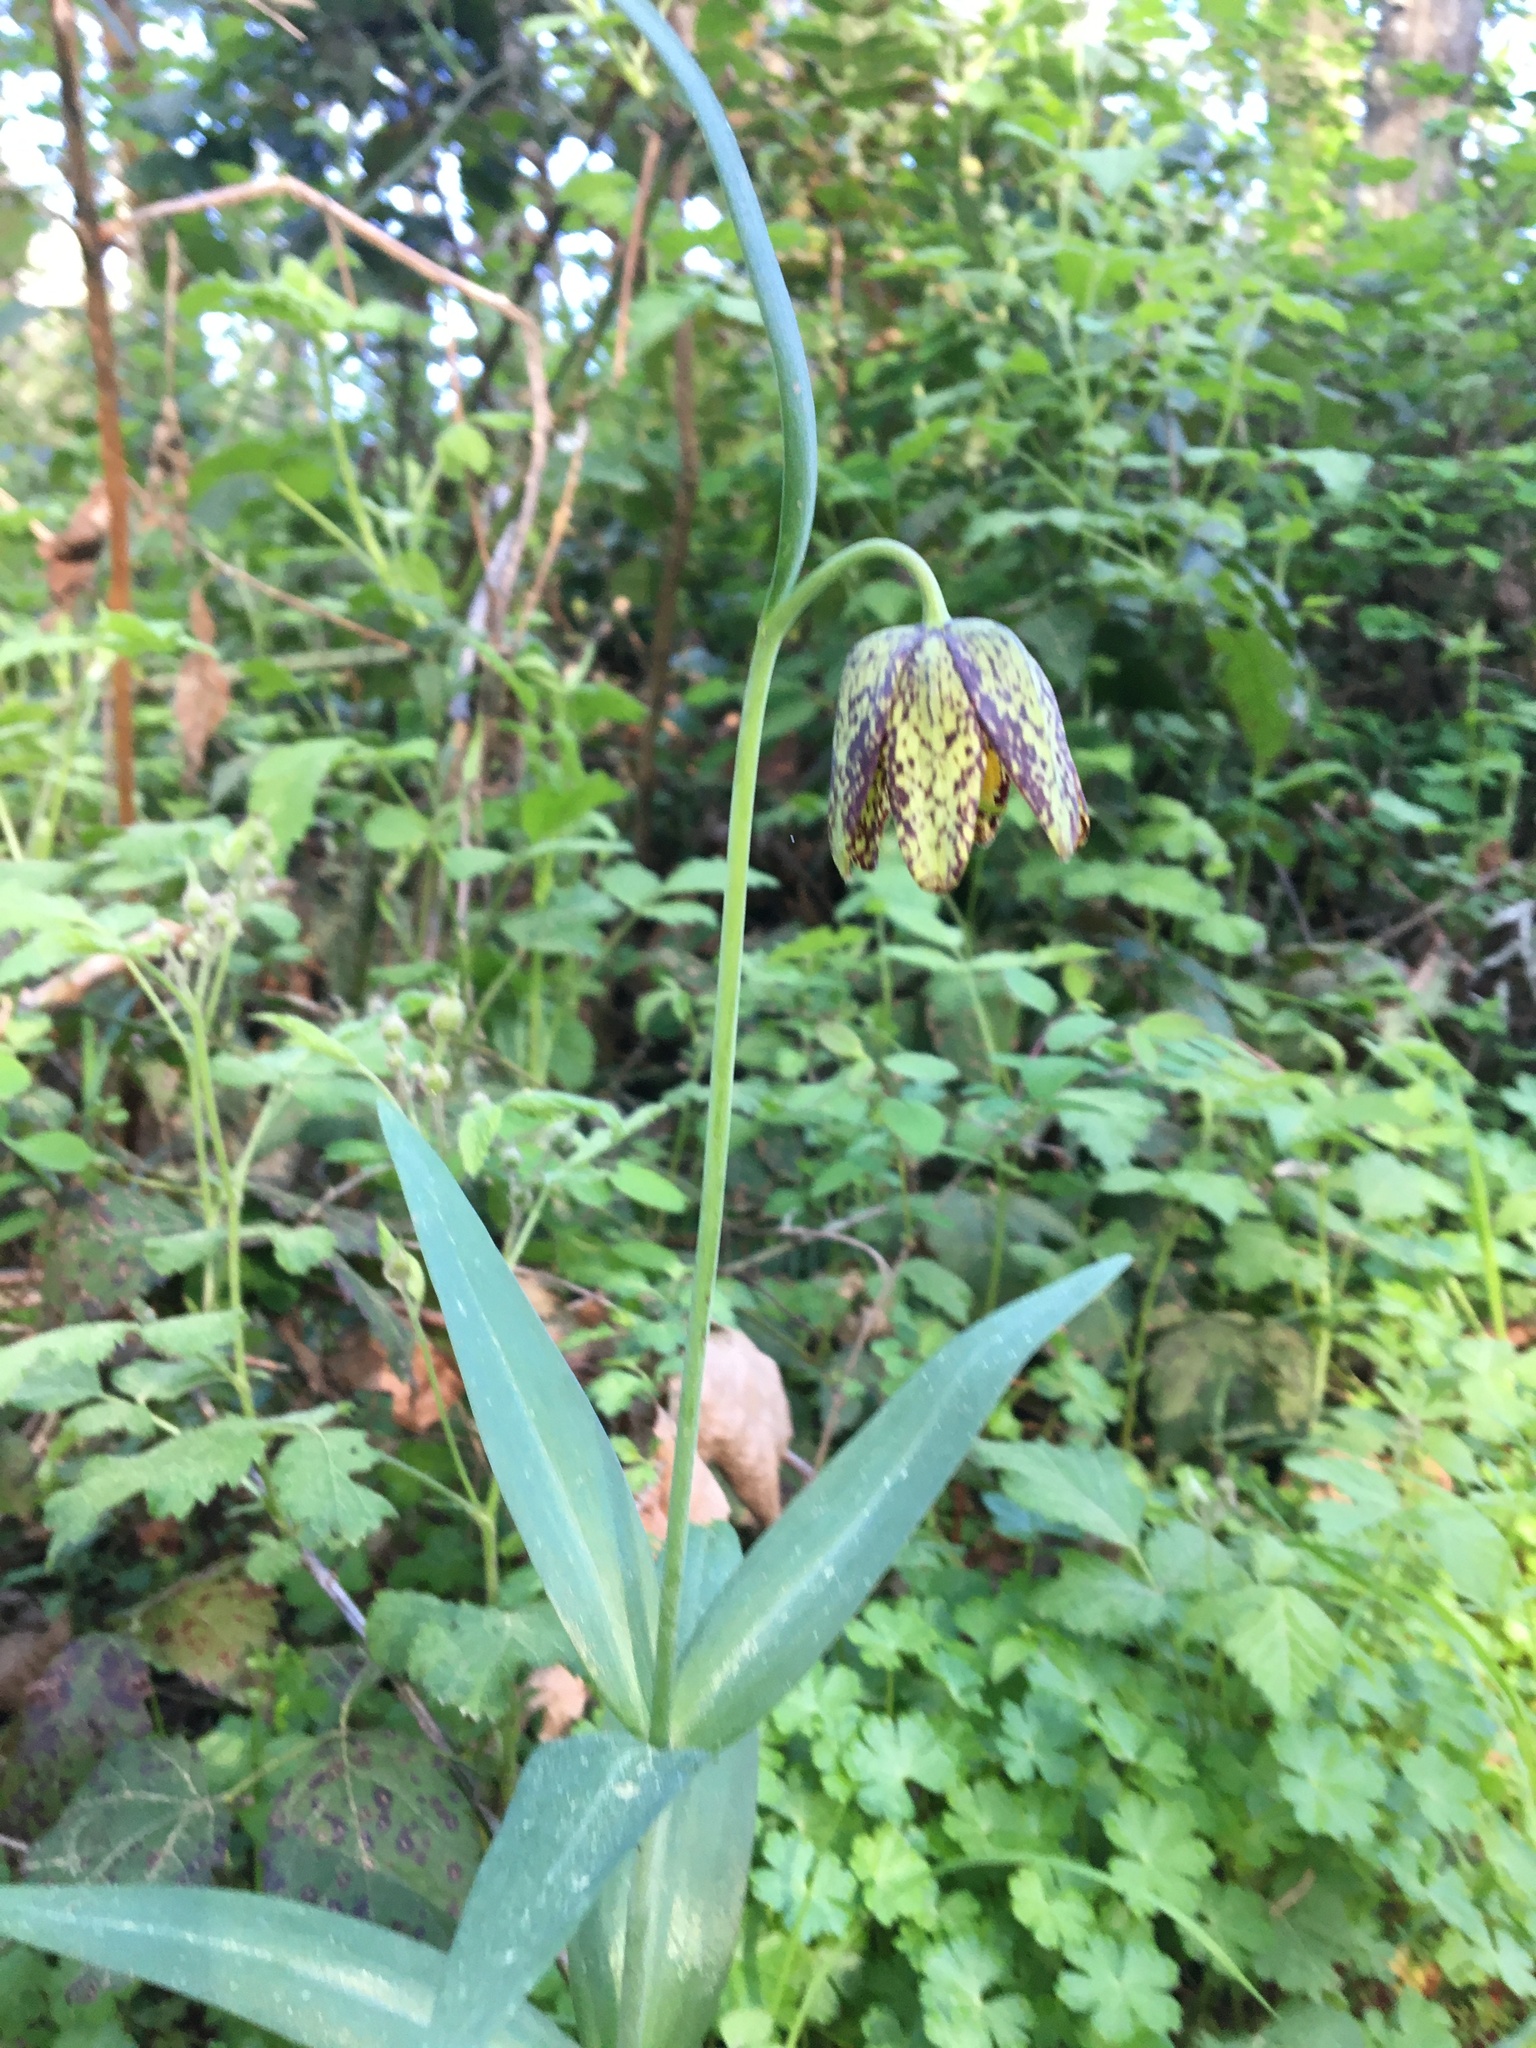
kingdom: Plantae
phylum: Tracheophyta
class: Liliopsida
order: Liliales
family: Liliaceae
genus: Fritillaria
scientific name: Fritillaria affinis
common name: Ojai fritillary
